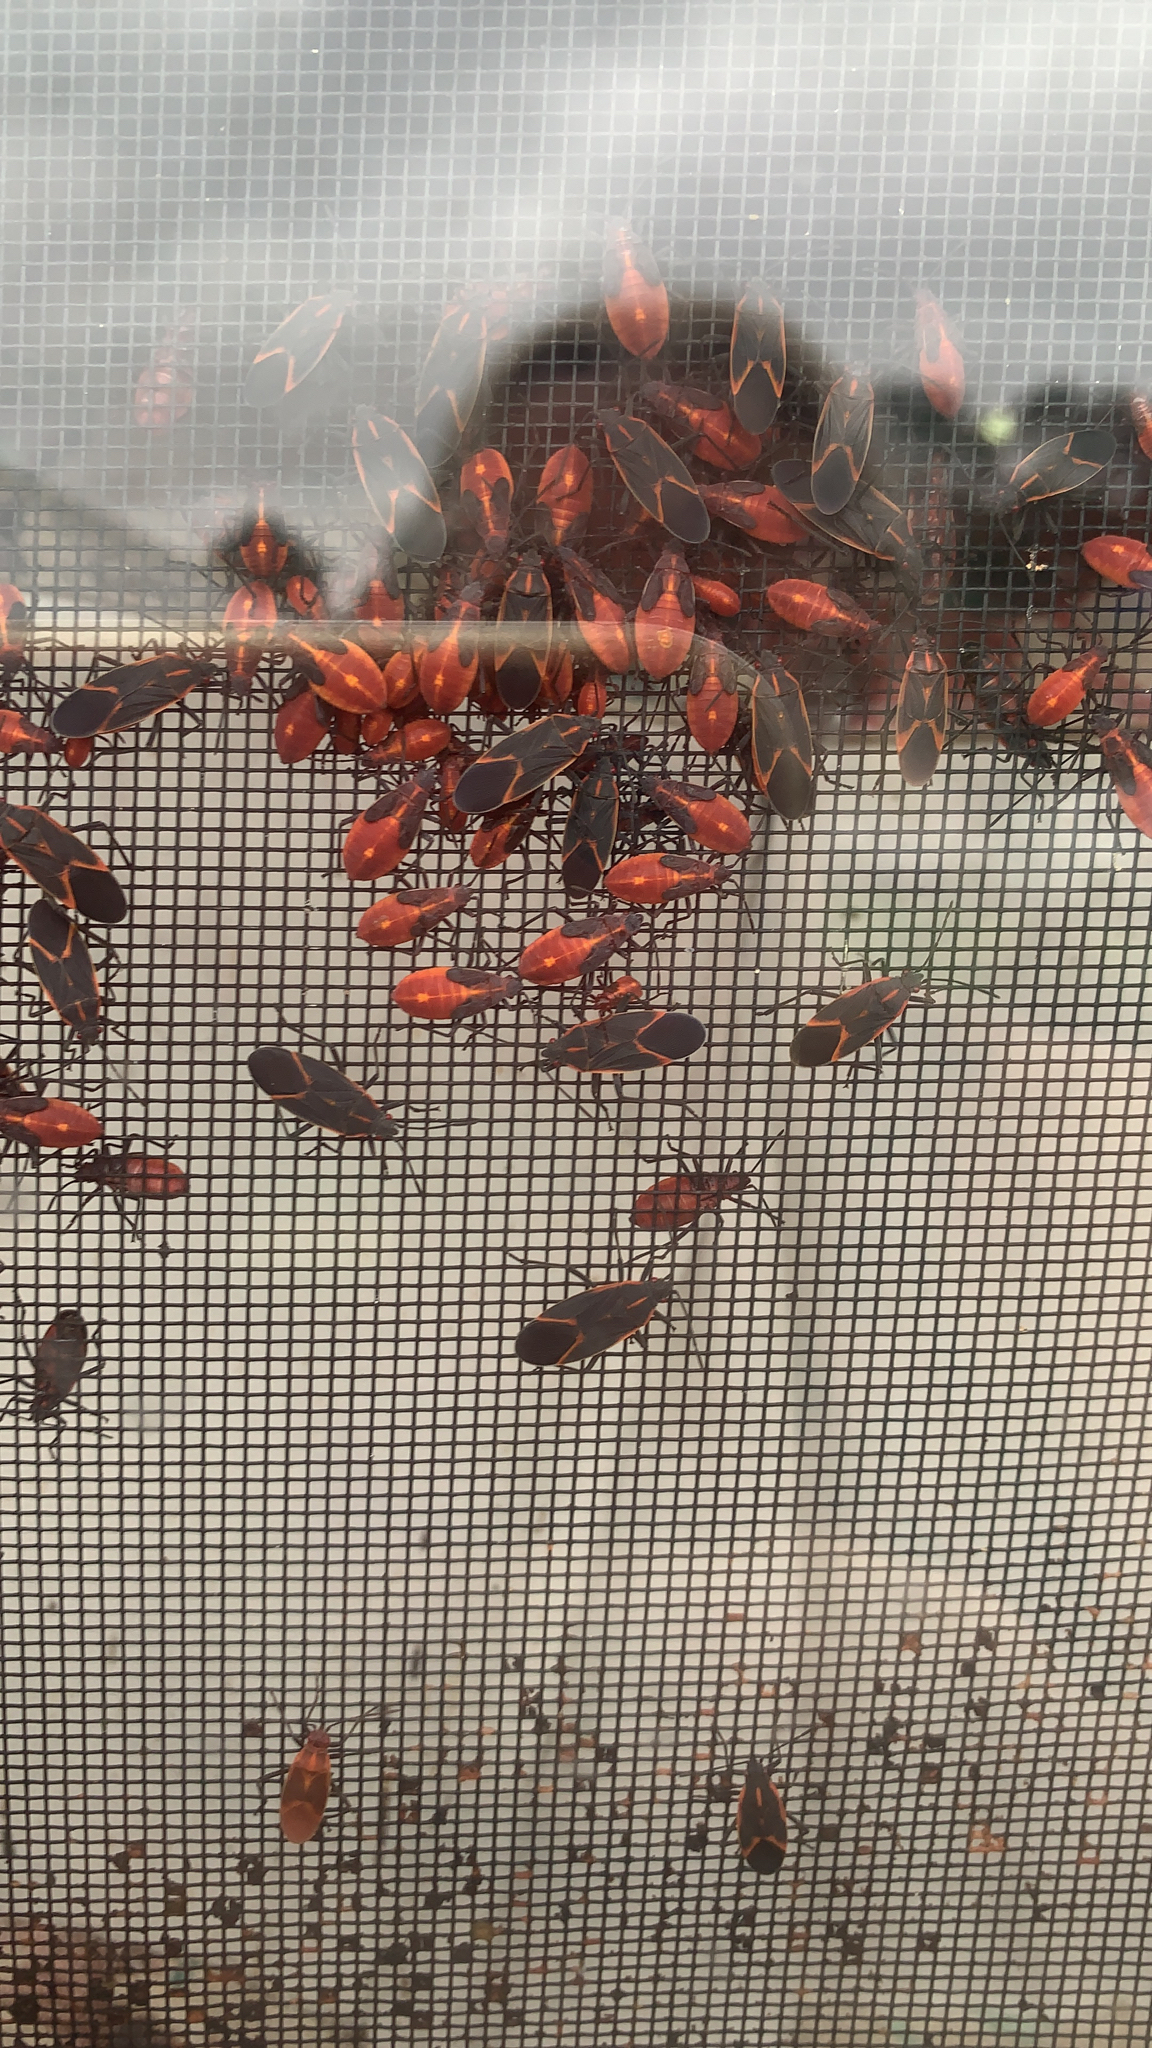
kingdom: Animalia
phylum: Arthropoda
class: Insecta
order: Hemiptera
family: Rhopalidae
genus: Boisea
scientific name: Boisea trivittata
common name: Boxelder bug
